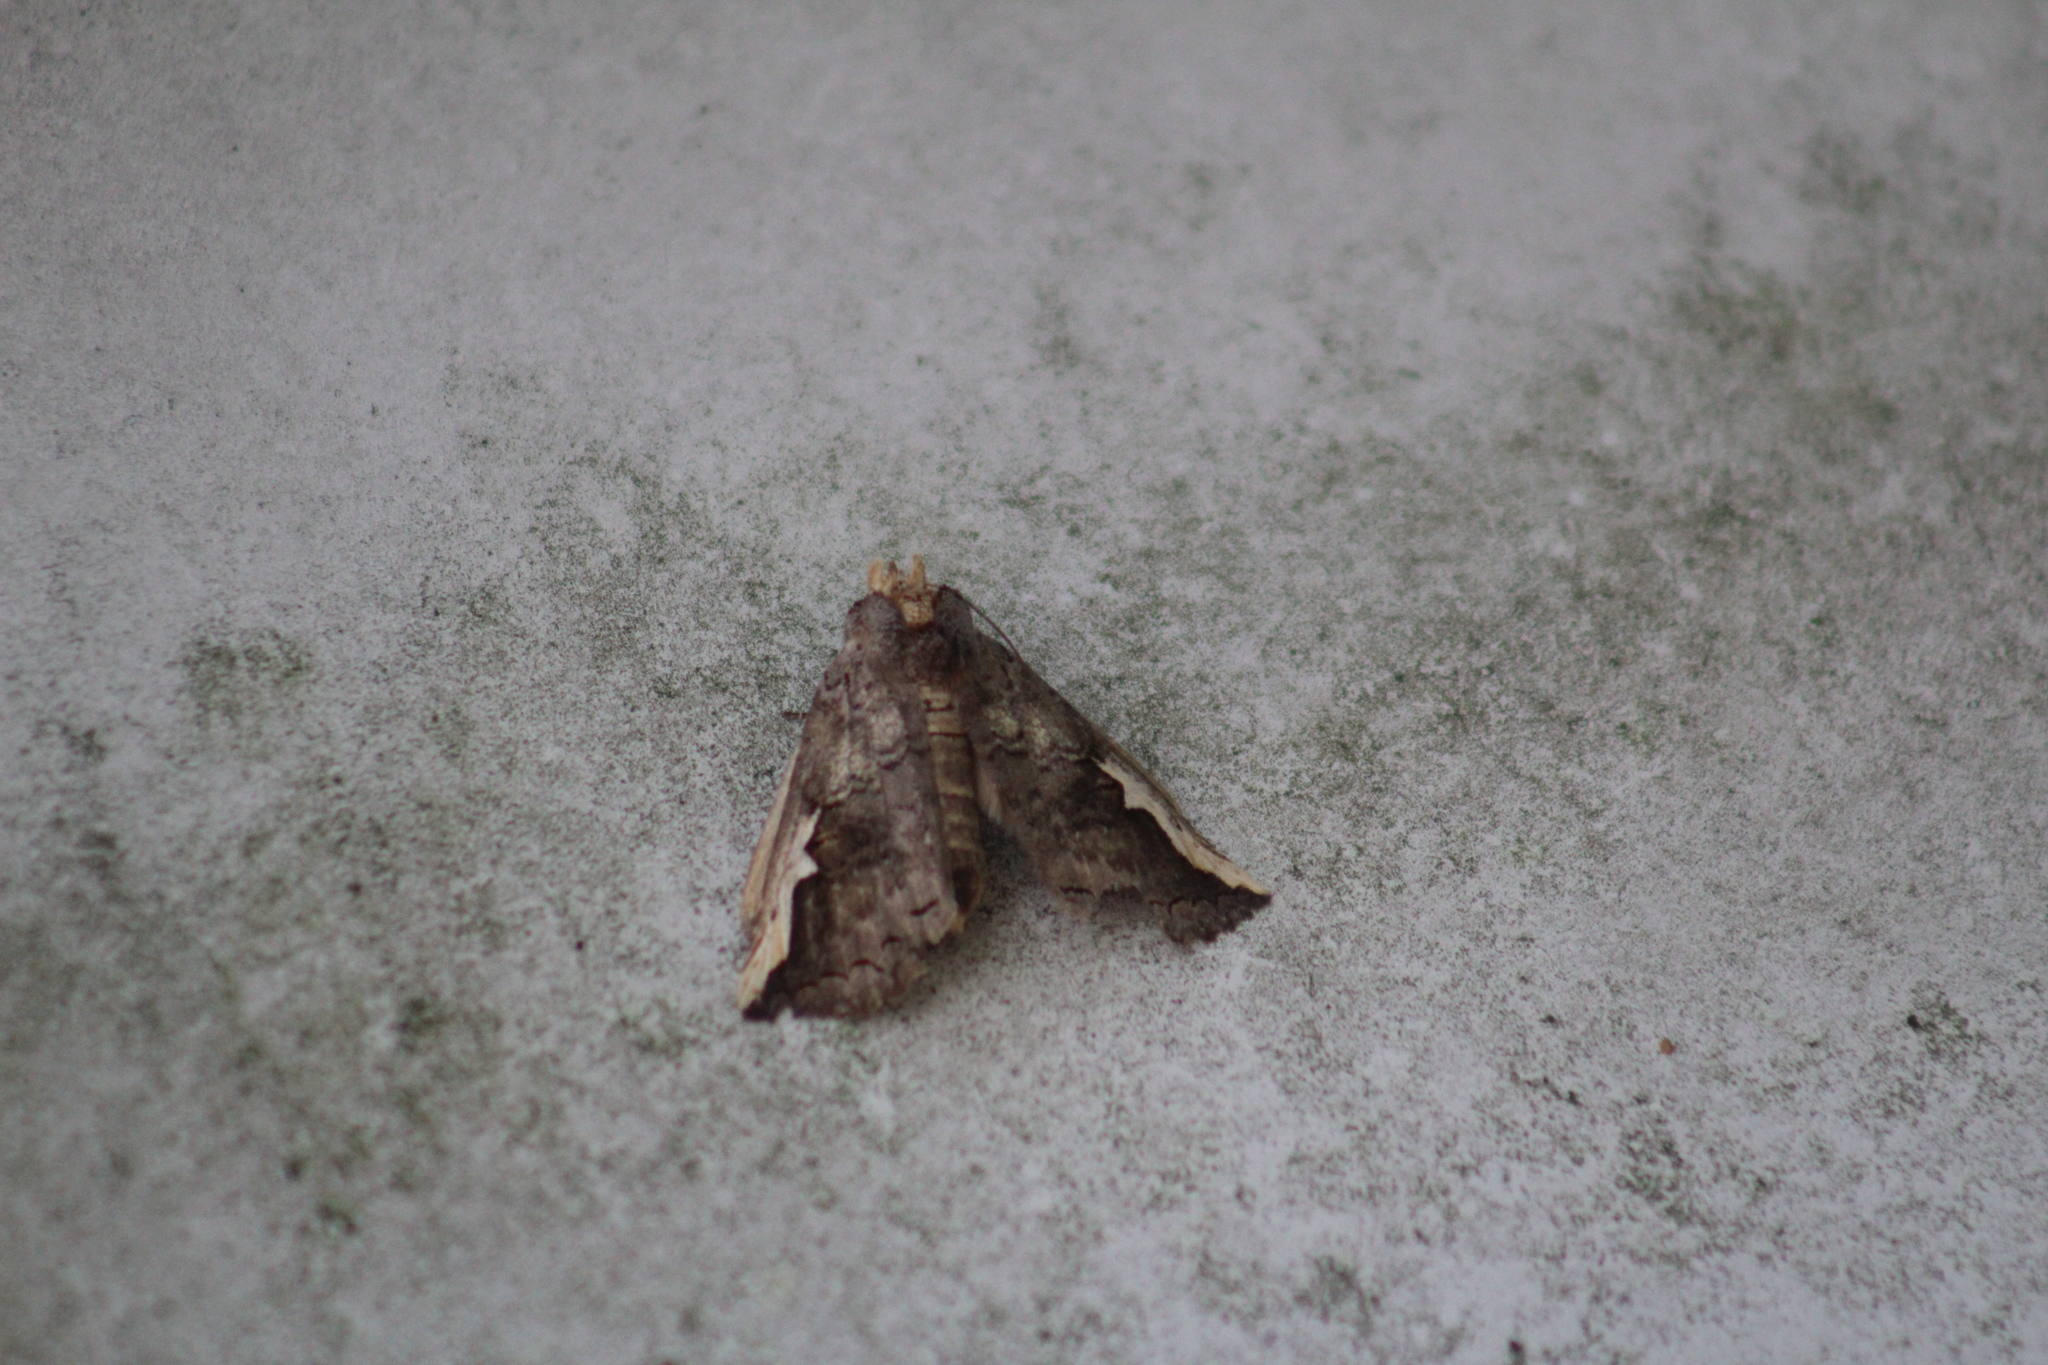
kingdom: Animalia
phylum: Arthropoda
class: Insecta
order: Lepidoptera
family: Notodontidae
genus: Symmerista
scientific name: Symmerista
